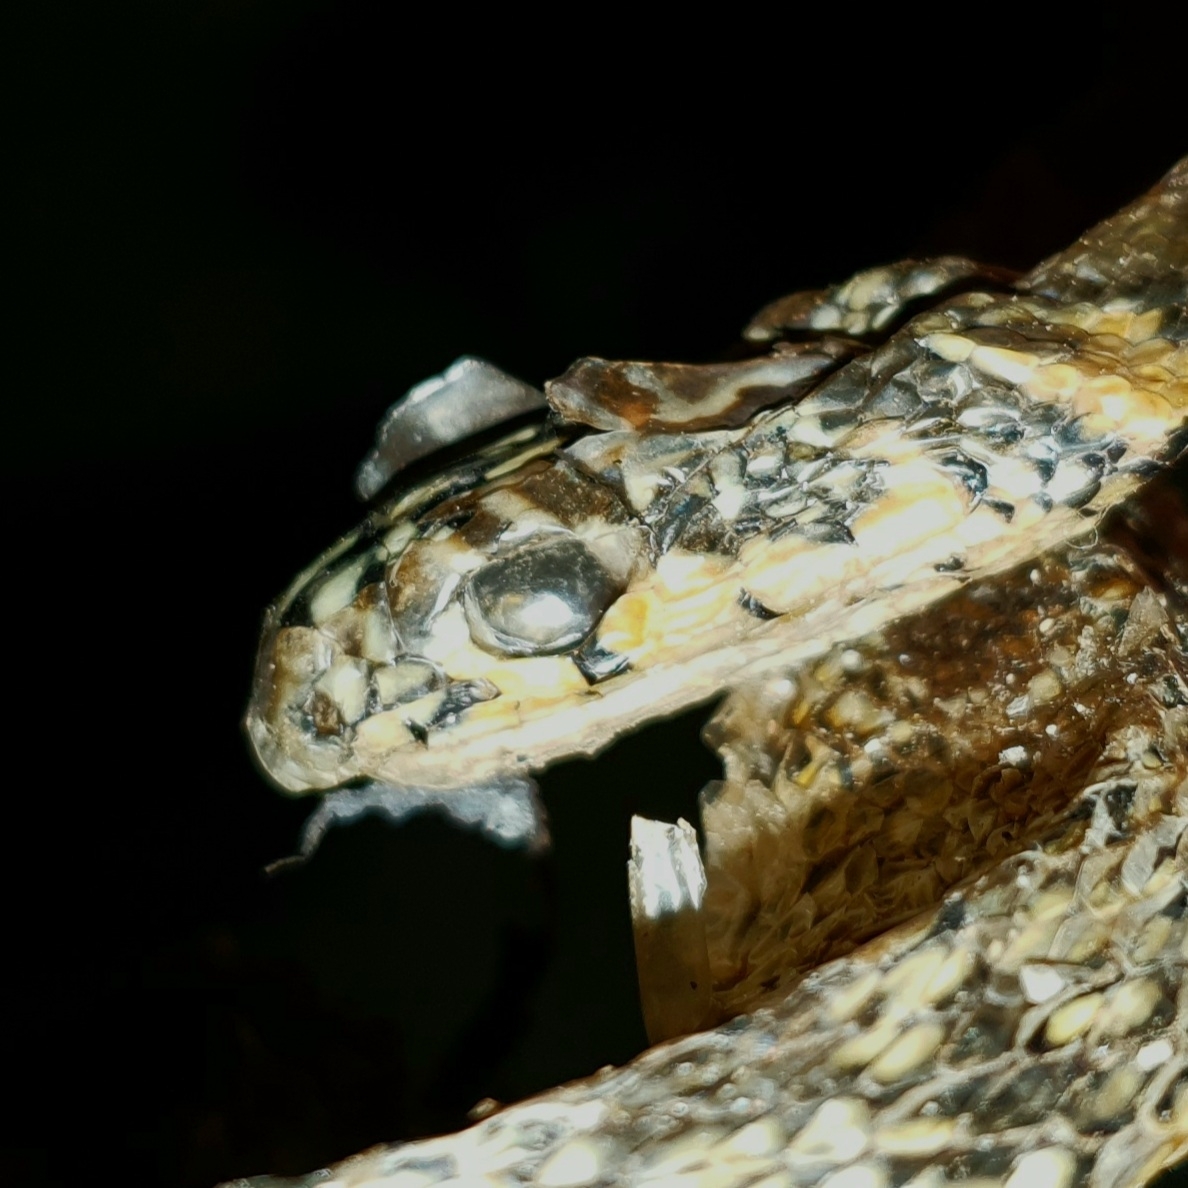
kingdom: Animalia
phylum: Chordata
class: Squamata
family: Colubridae
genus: Hemorrhois
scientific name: Hemorrhois hippocrepis
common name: Horseshoe whip snake
